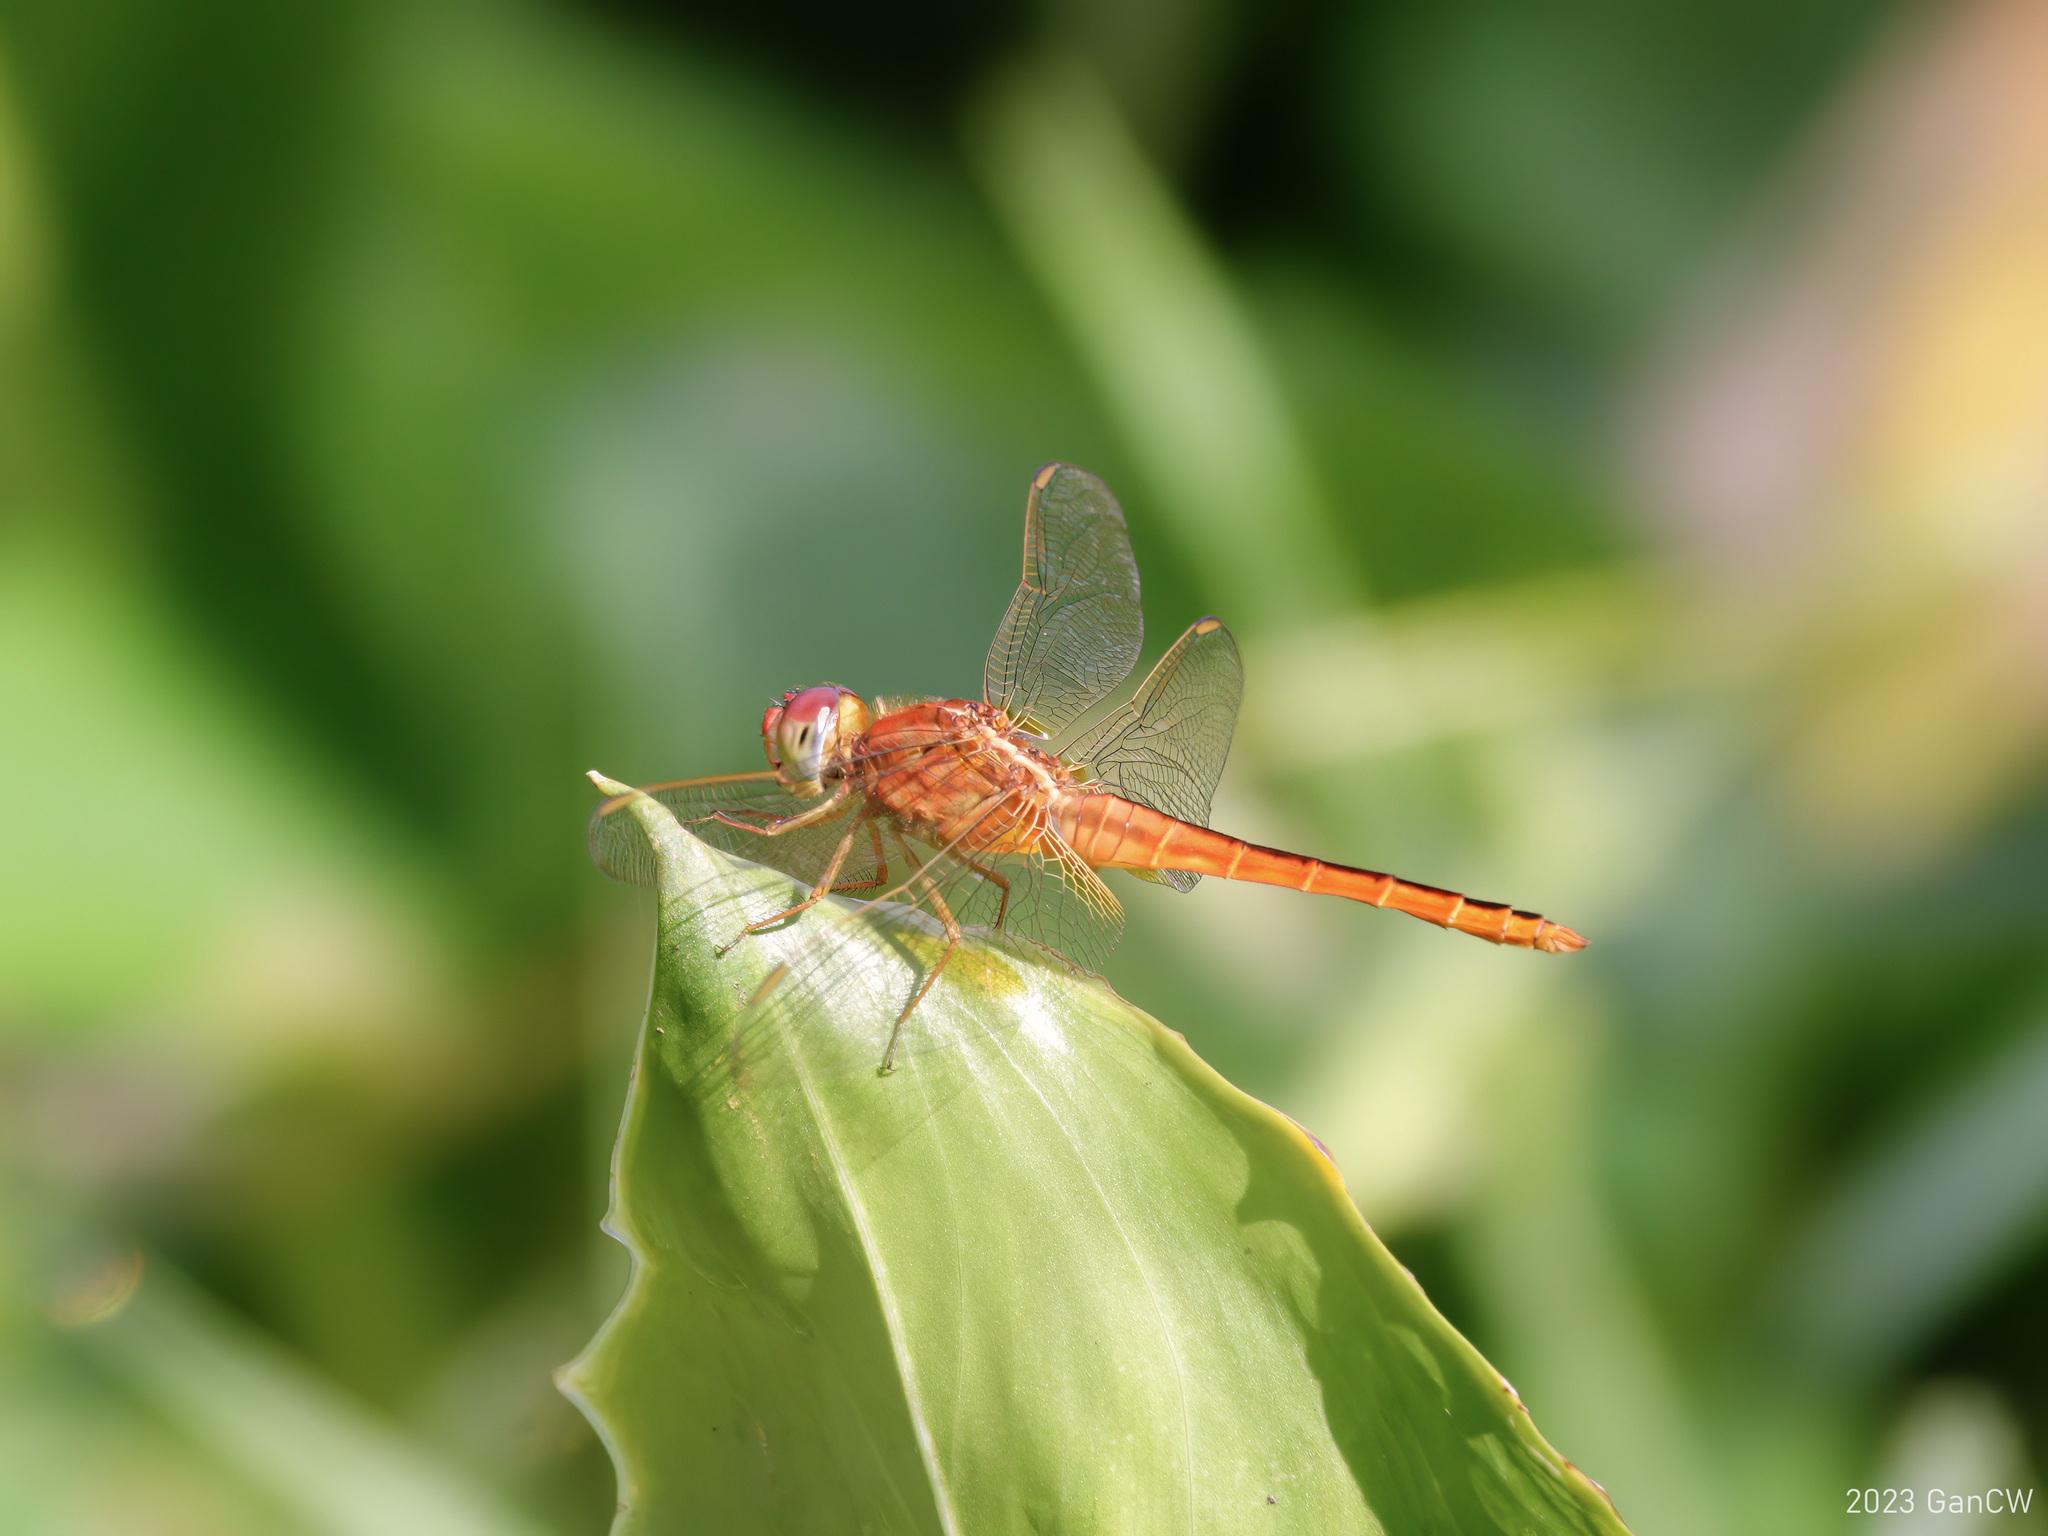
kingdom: Animalia
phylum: Arthropoda
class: Insecta
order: Odonata
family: Libellulidae
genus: Crocothemis
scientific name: Crocothemis servilia
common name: Scarlet skimmer
